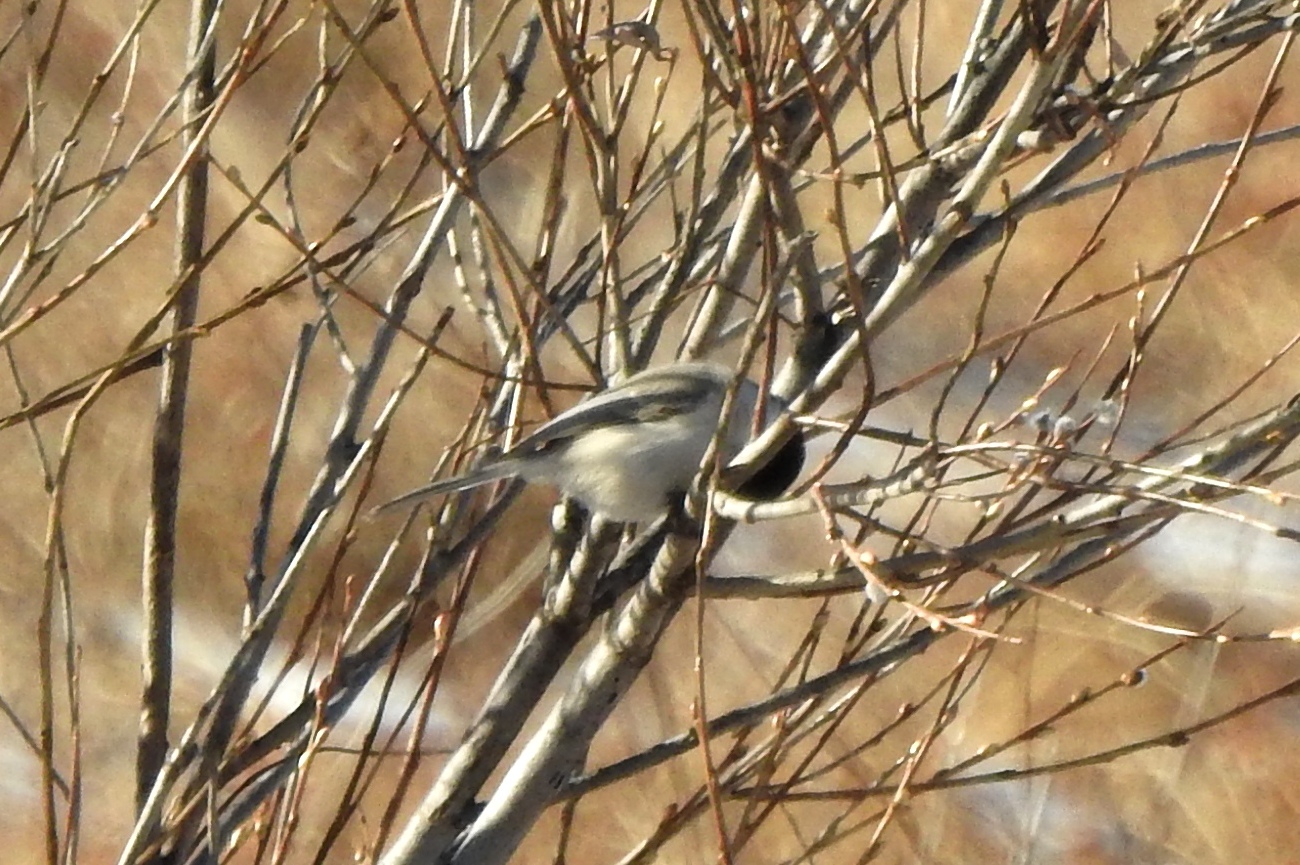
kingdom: Animalia
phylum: Chordata
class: Aves
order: Passeriformes
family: Paridae
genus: Poecile
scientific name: Poecile montanus
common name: Willow tit
